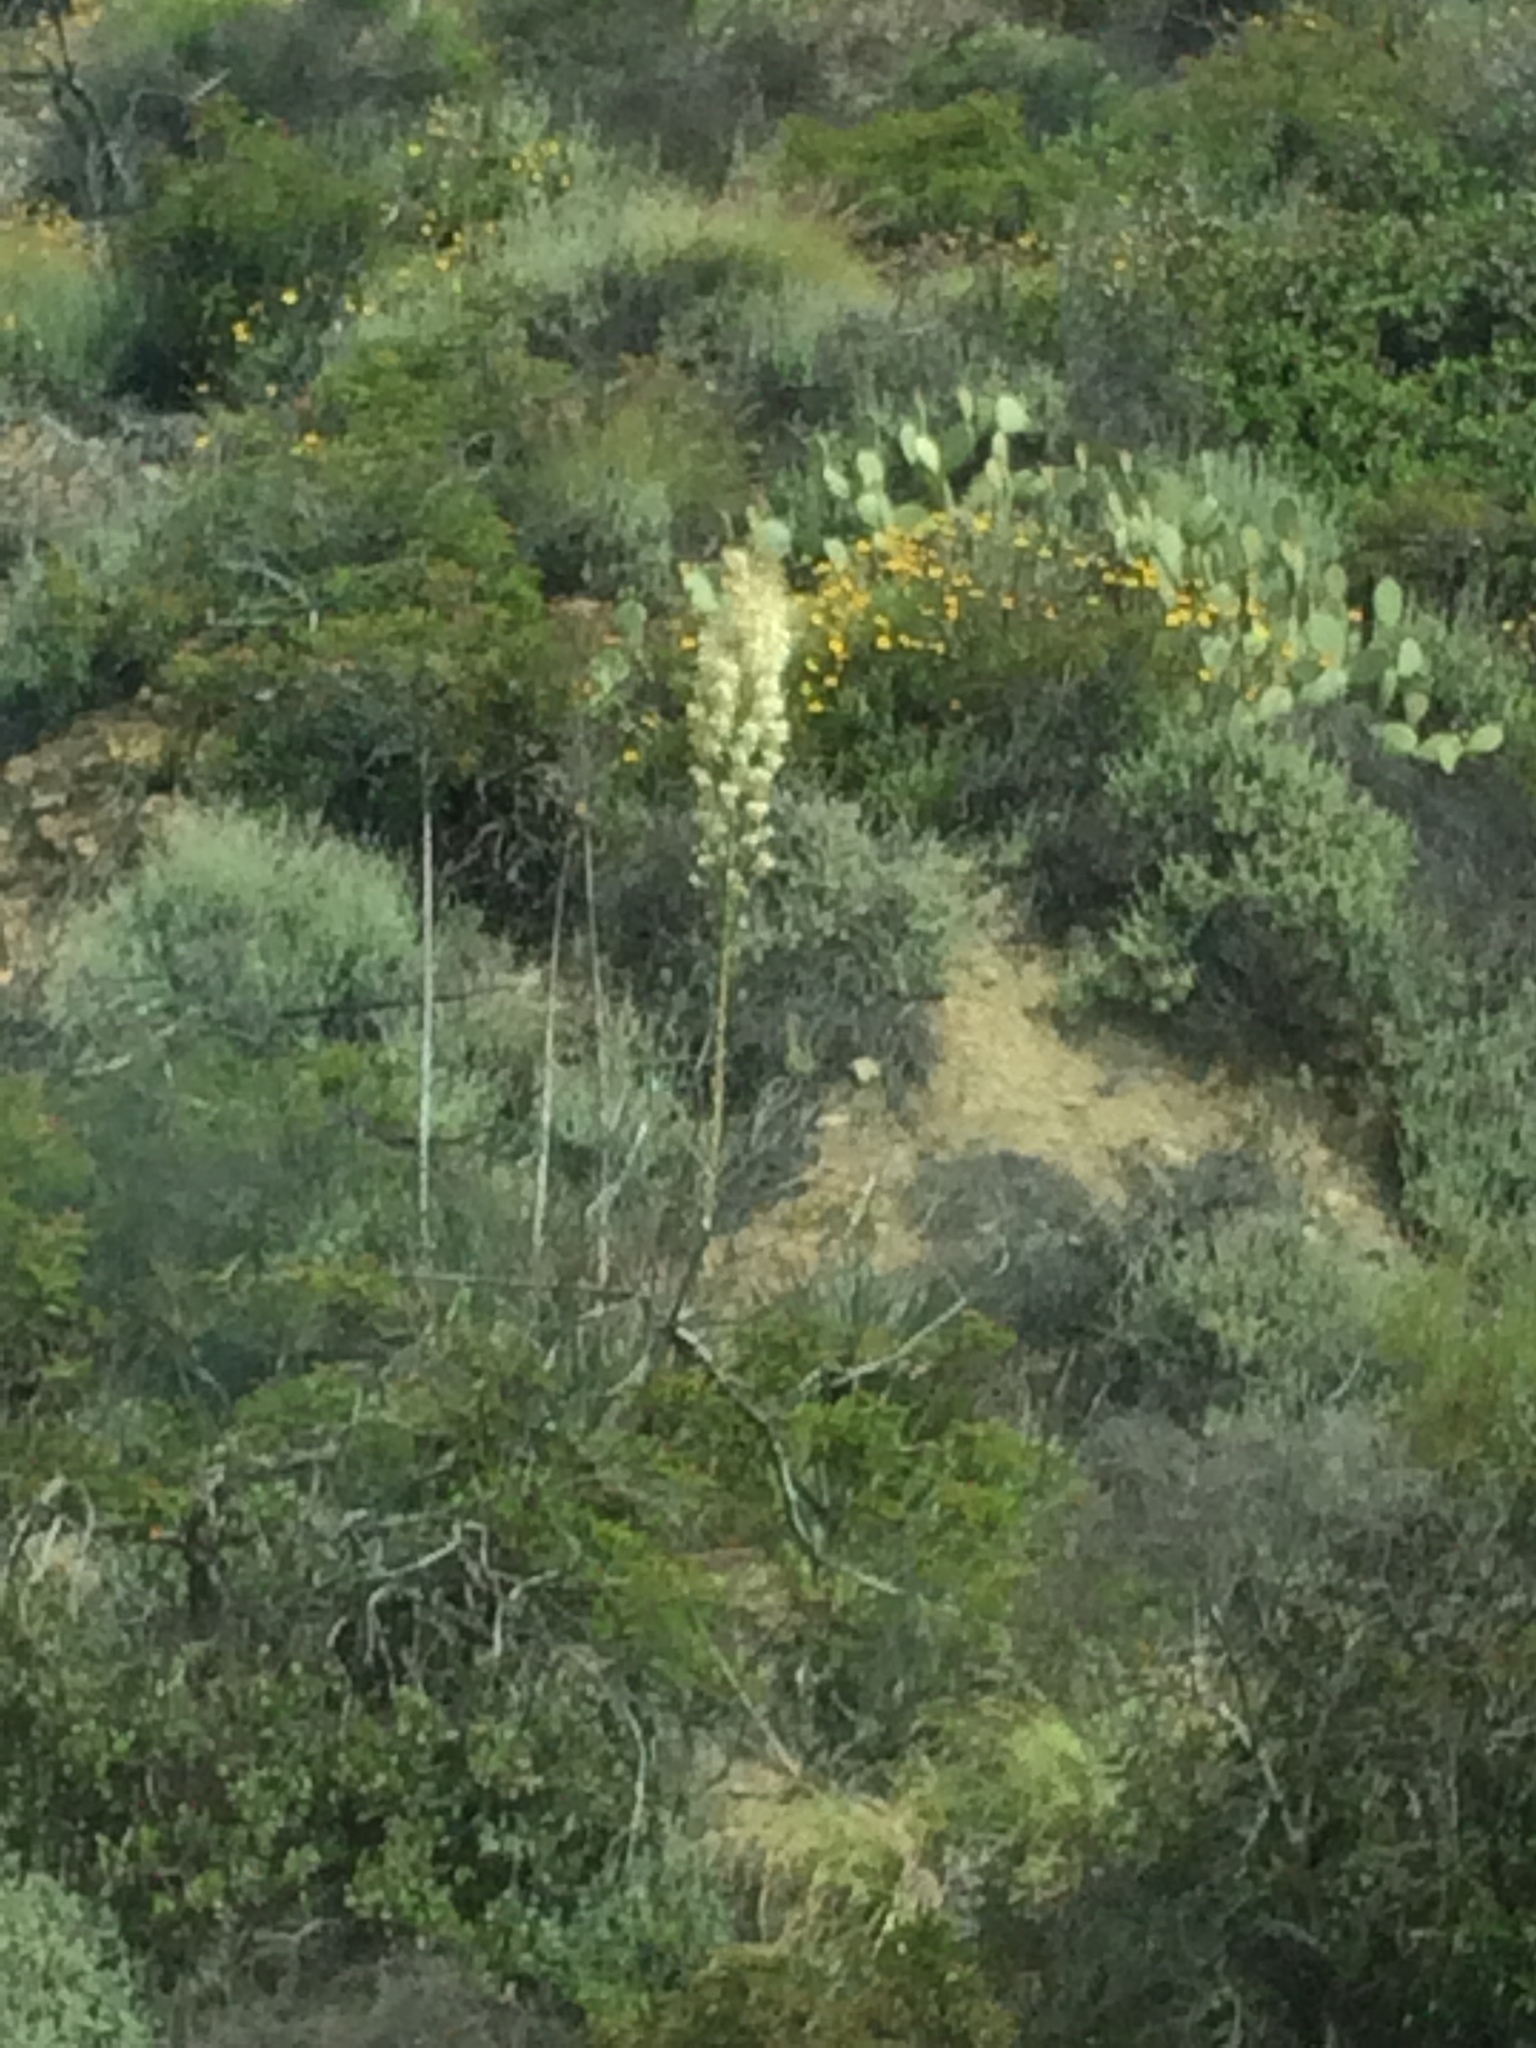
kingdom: Plantae
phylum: Tracheophyta
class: Magnoliopsida
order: Asterales
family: Asteraceae
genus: Encelia
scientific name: Encelia californica
